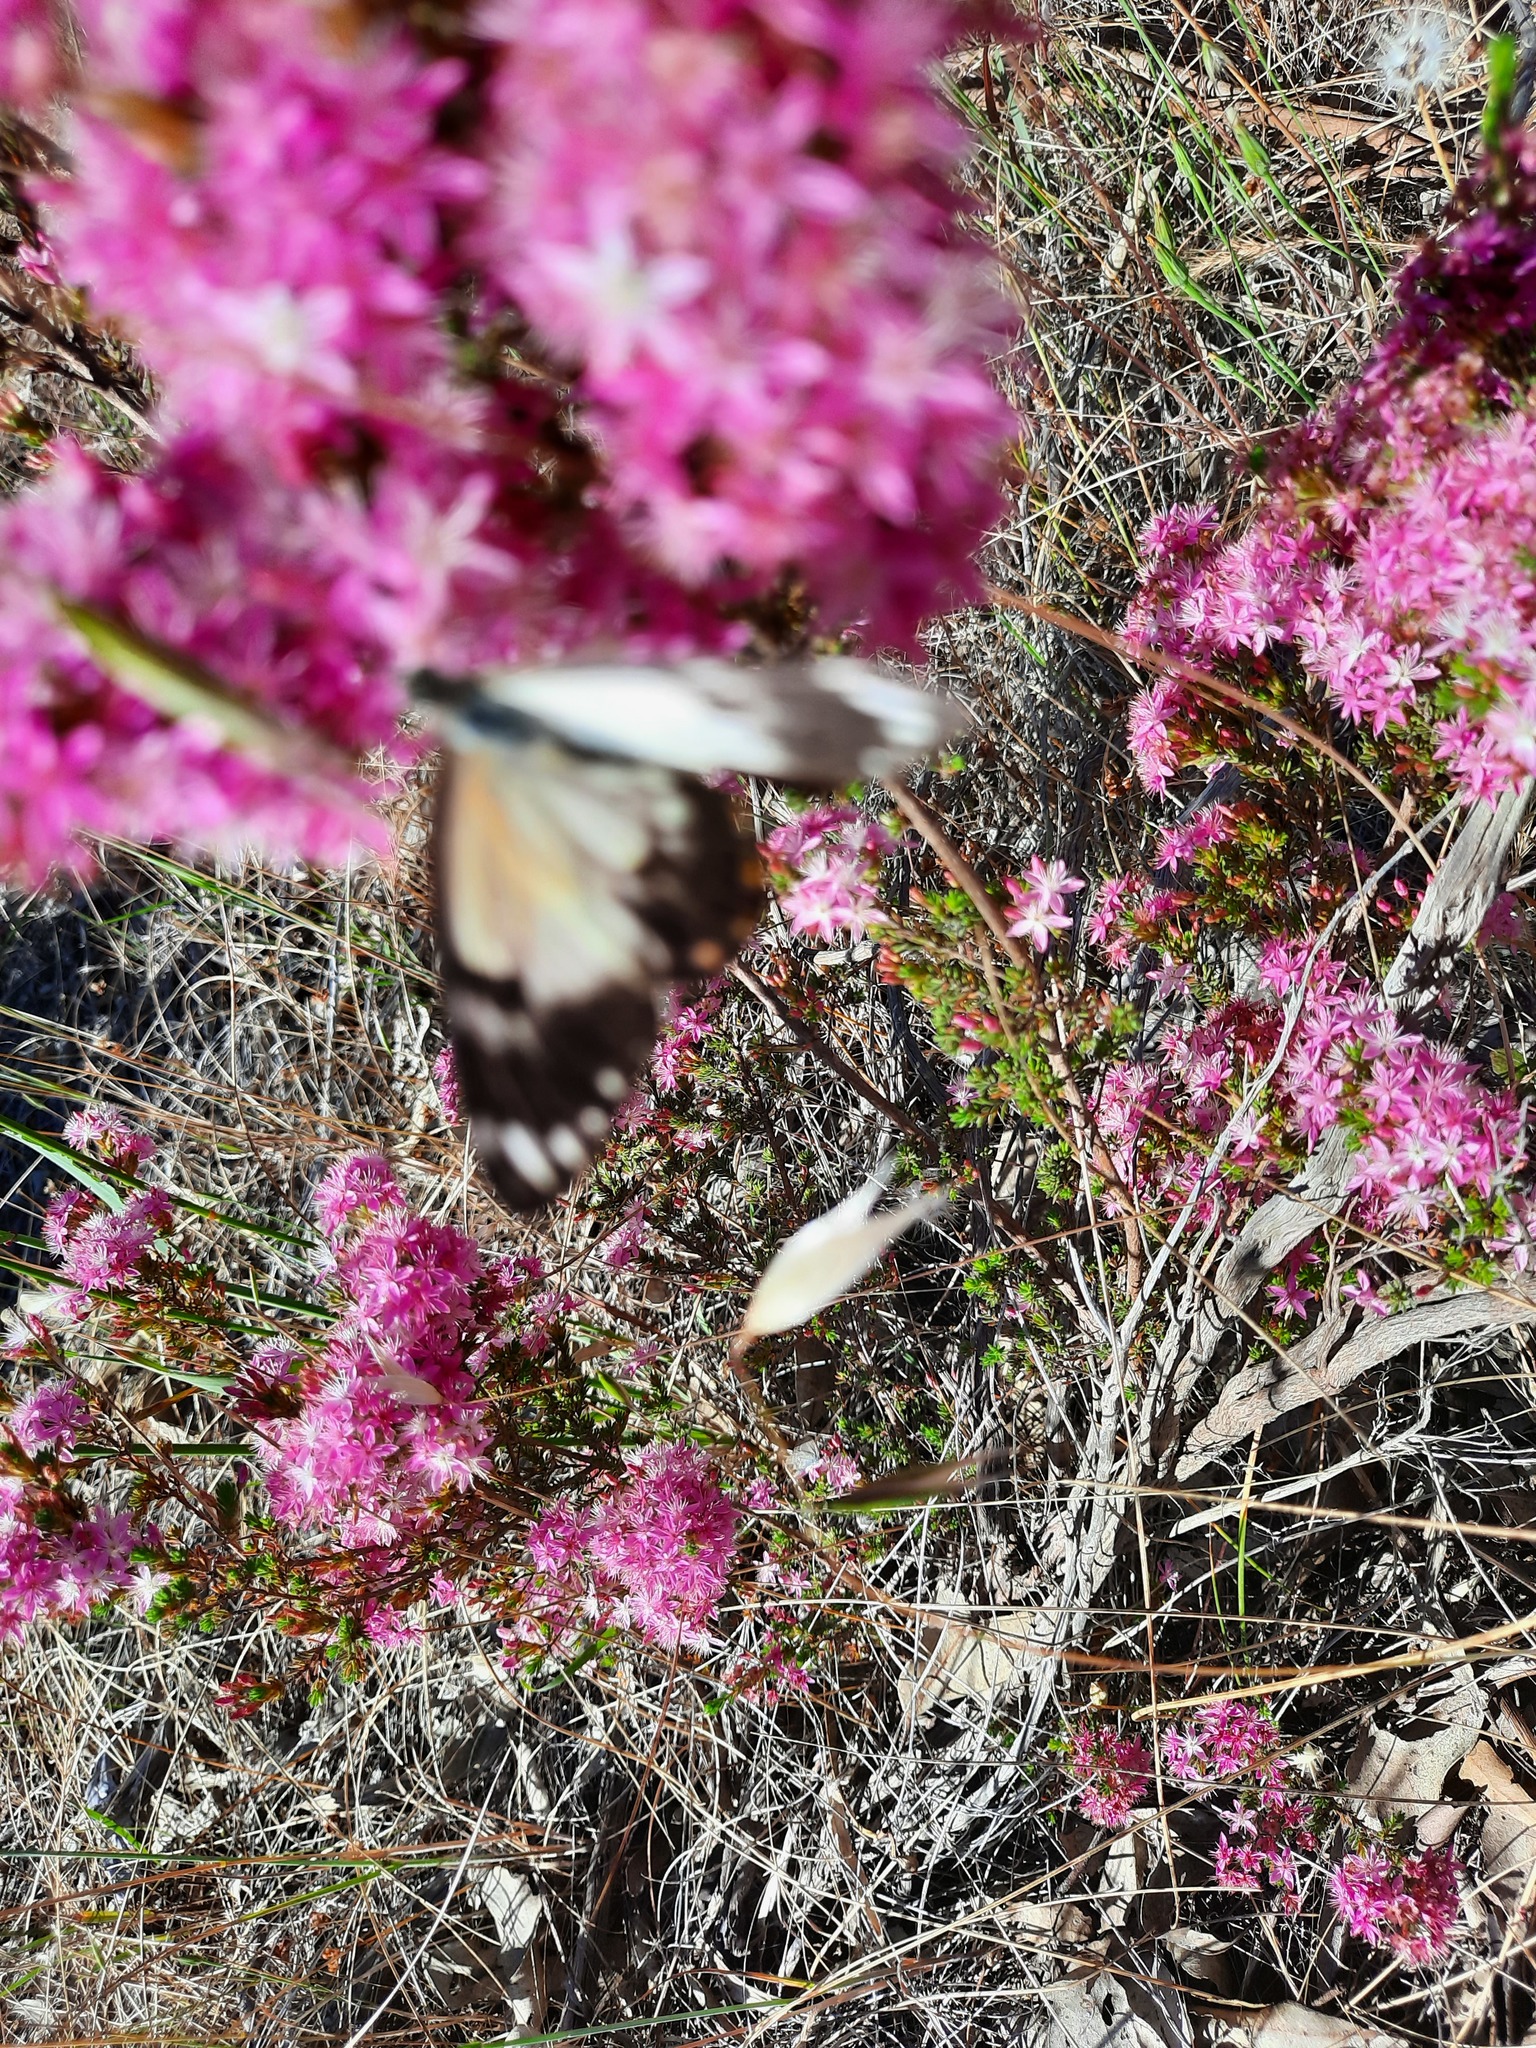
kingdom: Animalia
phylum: Arthropoda
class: Insecta
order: Lepidoptera
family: Pieridae
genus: Belenois
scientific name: Belenois java
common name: Caper white
